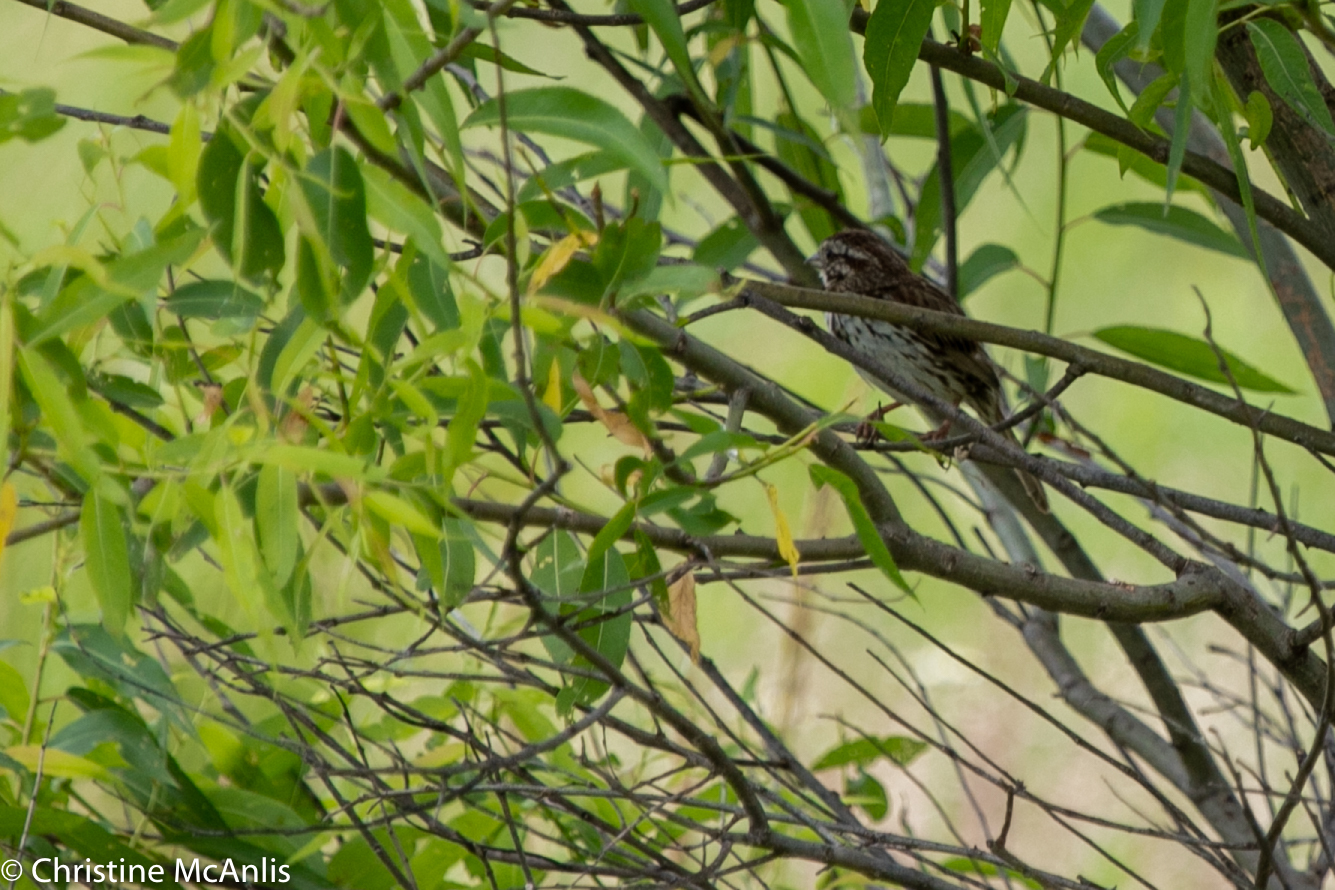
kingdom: Animalia
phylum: Chordata
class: Aves
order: Passeriformes
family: Passerellidae
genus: Melospiza
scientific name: Melospiza melodia
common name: Song sparrow
